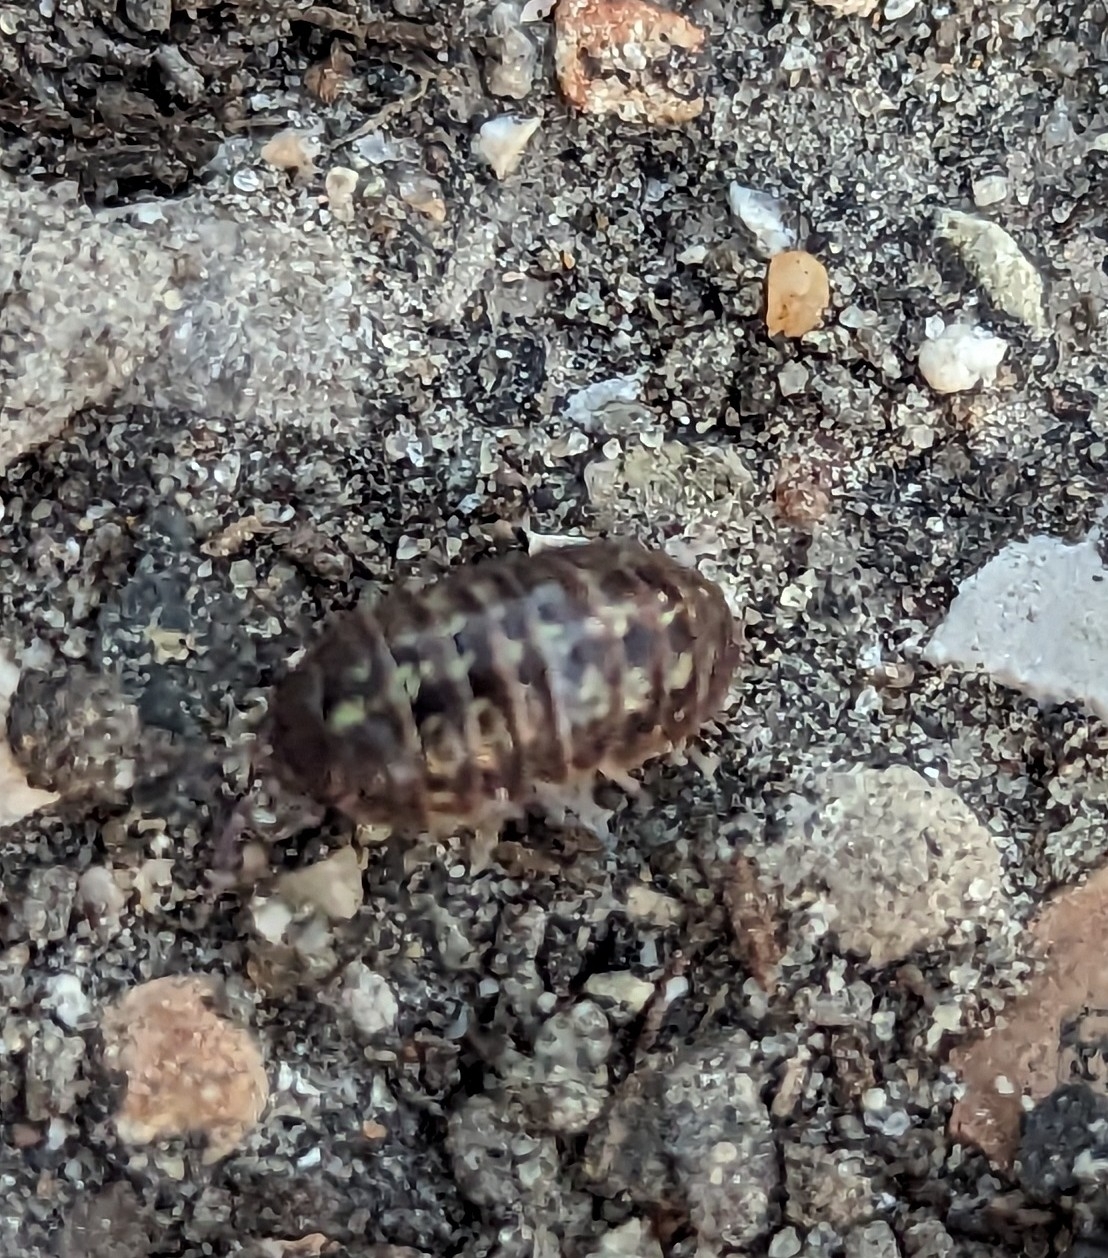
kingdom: Animalia
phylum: Arthropoda
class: Malacostraca
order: Isopoda
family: Armadillidiidae
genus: Armadillidium
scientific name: Armadillidium vulgare
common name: Common pill woodlouse
